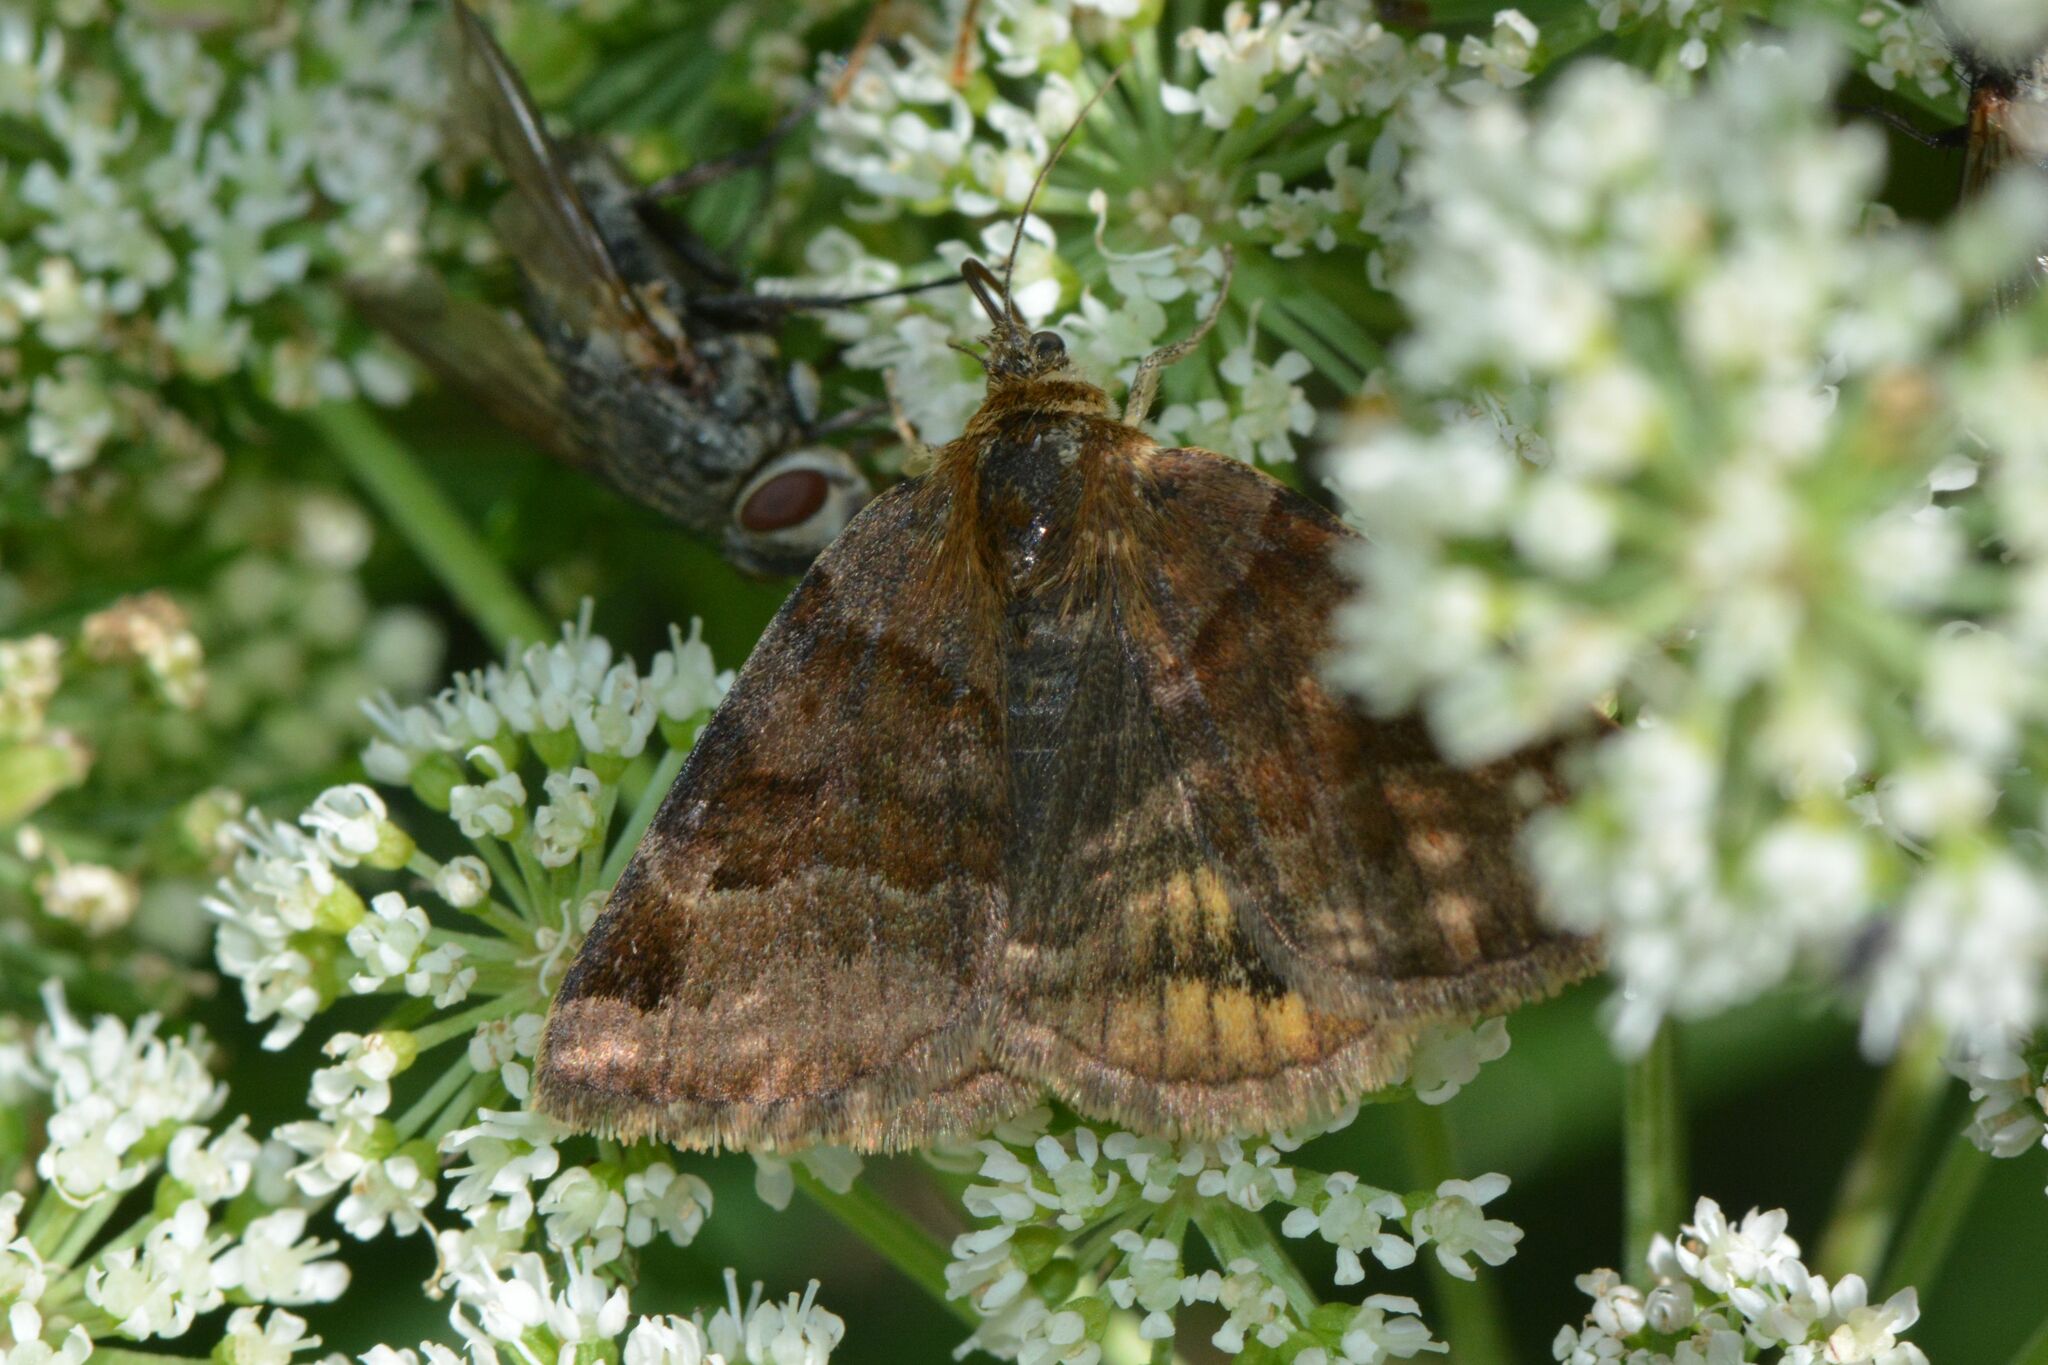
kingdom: Animalia
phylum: Arthropoda
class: Insecta
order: Lepidoptera
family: Erebidae
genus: Euclidia
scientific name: Euclidia glyphica
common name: Burnet companion
